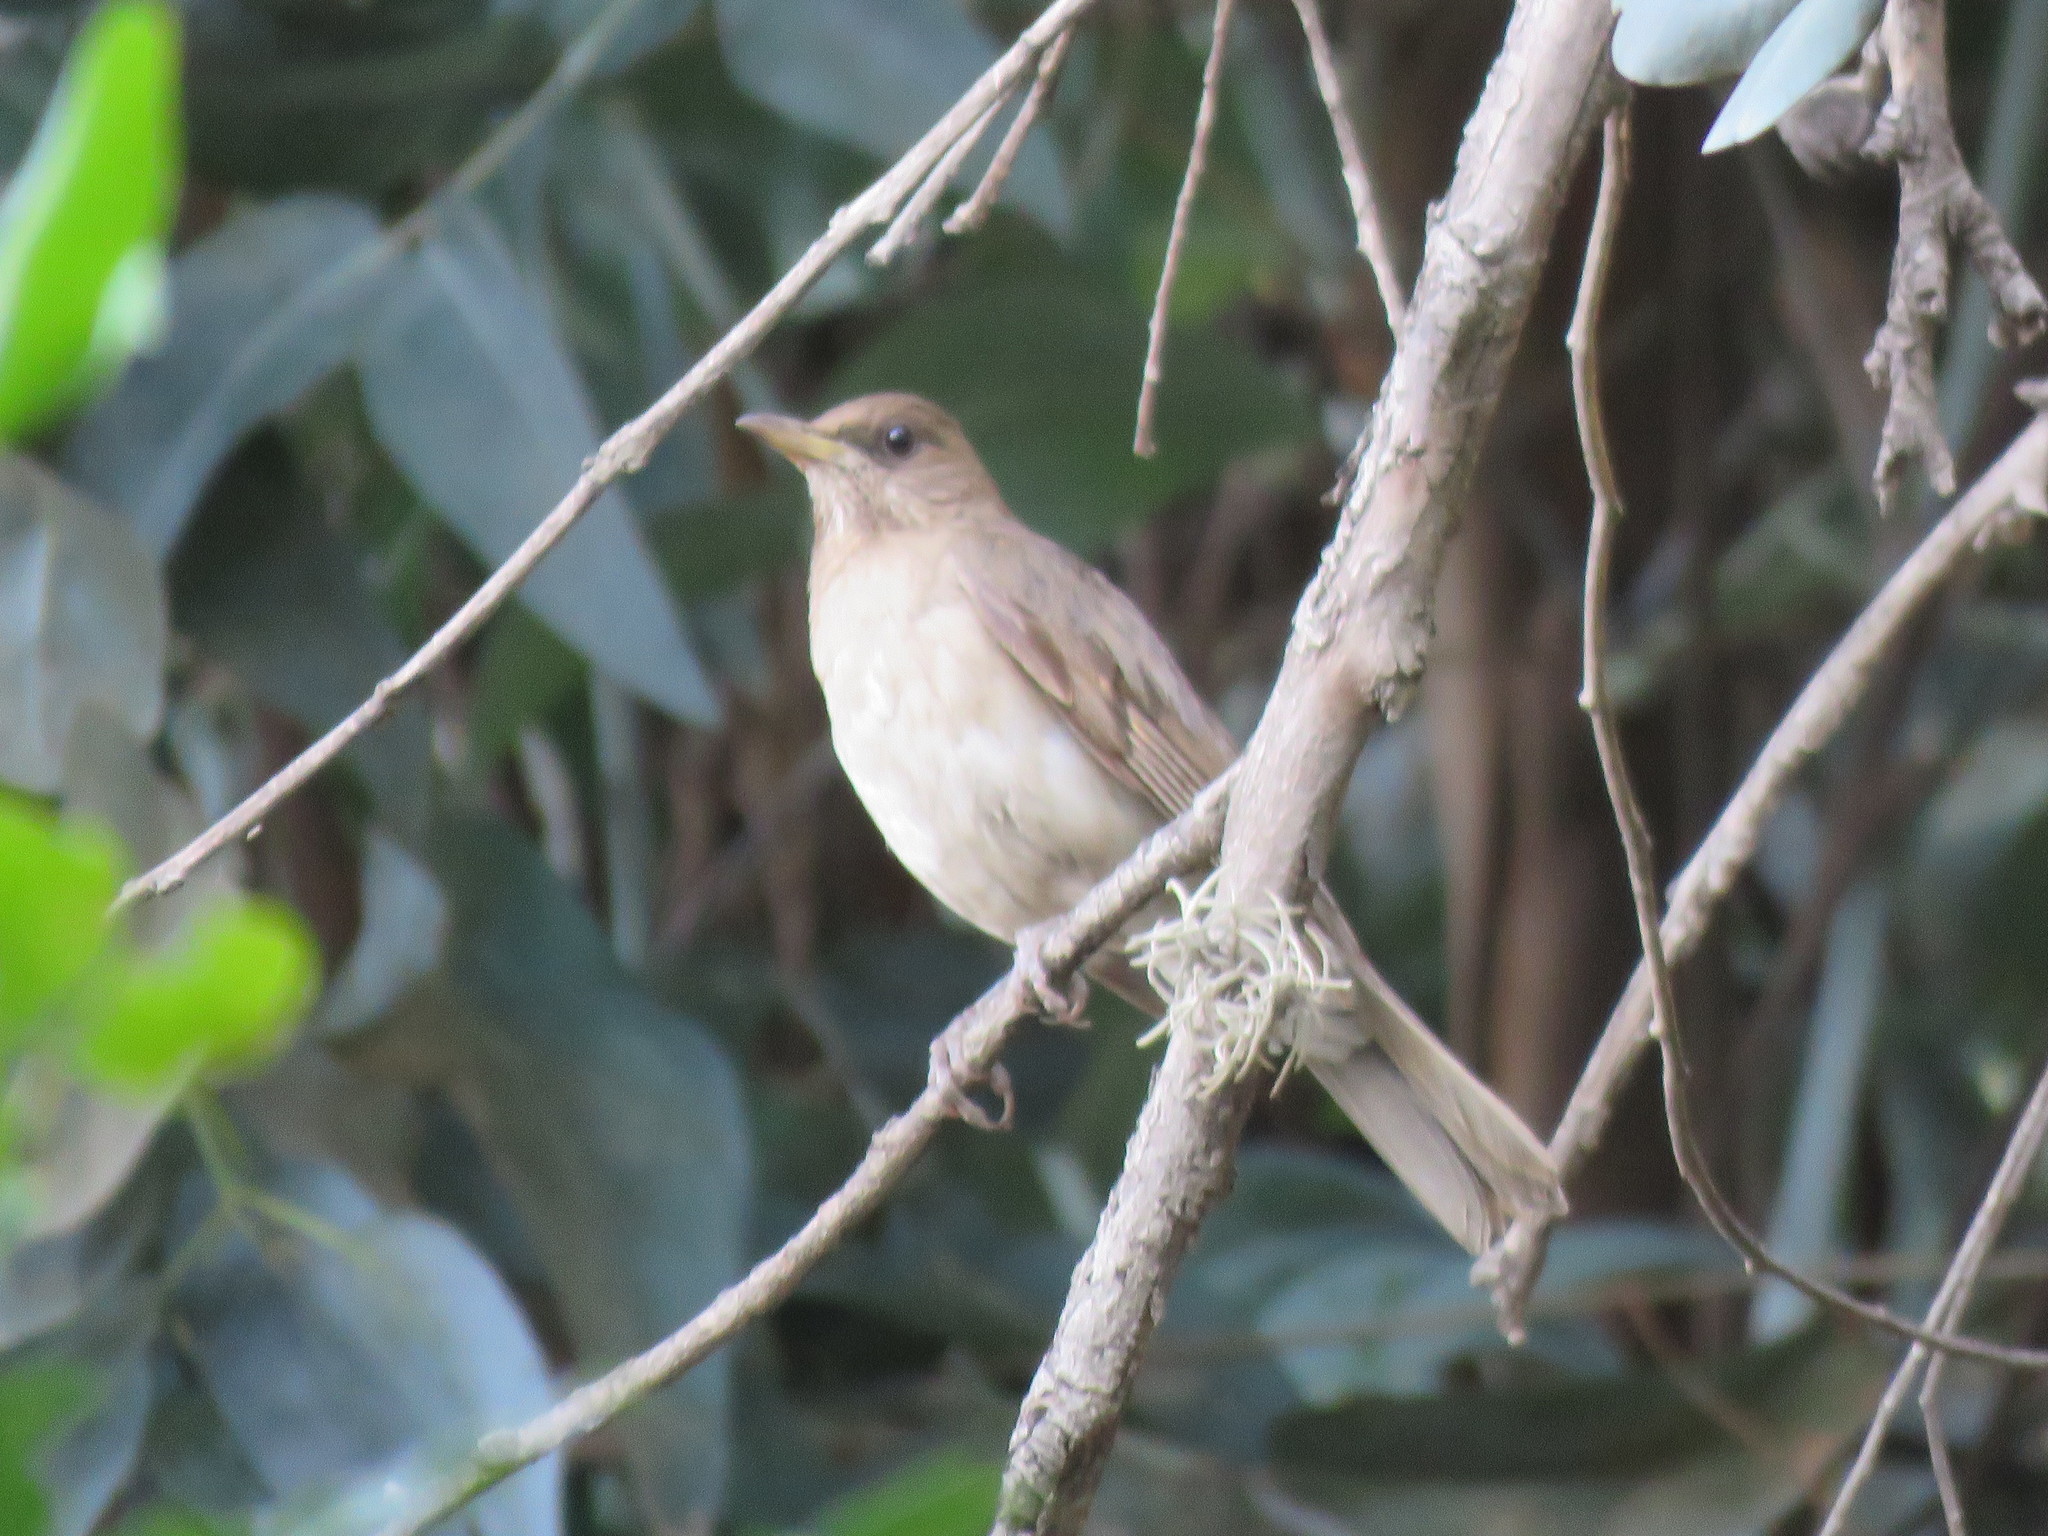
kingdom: Animalia
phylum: Chordata
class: Aves
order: Passeriformes
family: Turdidae
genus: Turdus
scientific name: Turdus amaurochalinus
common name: Creamy-bellied thrush
